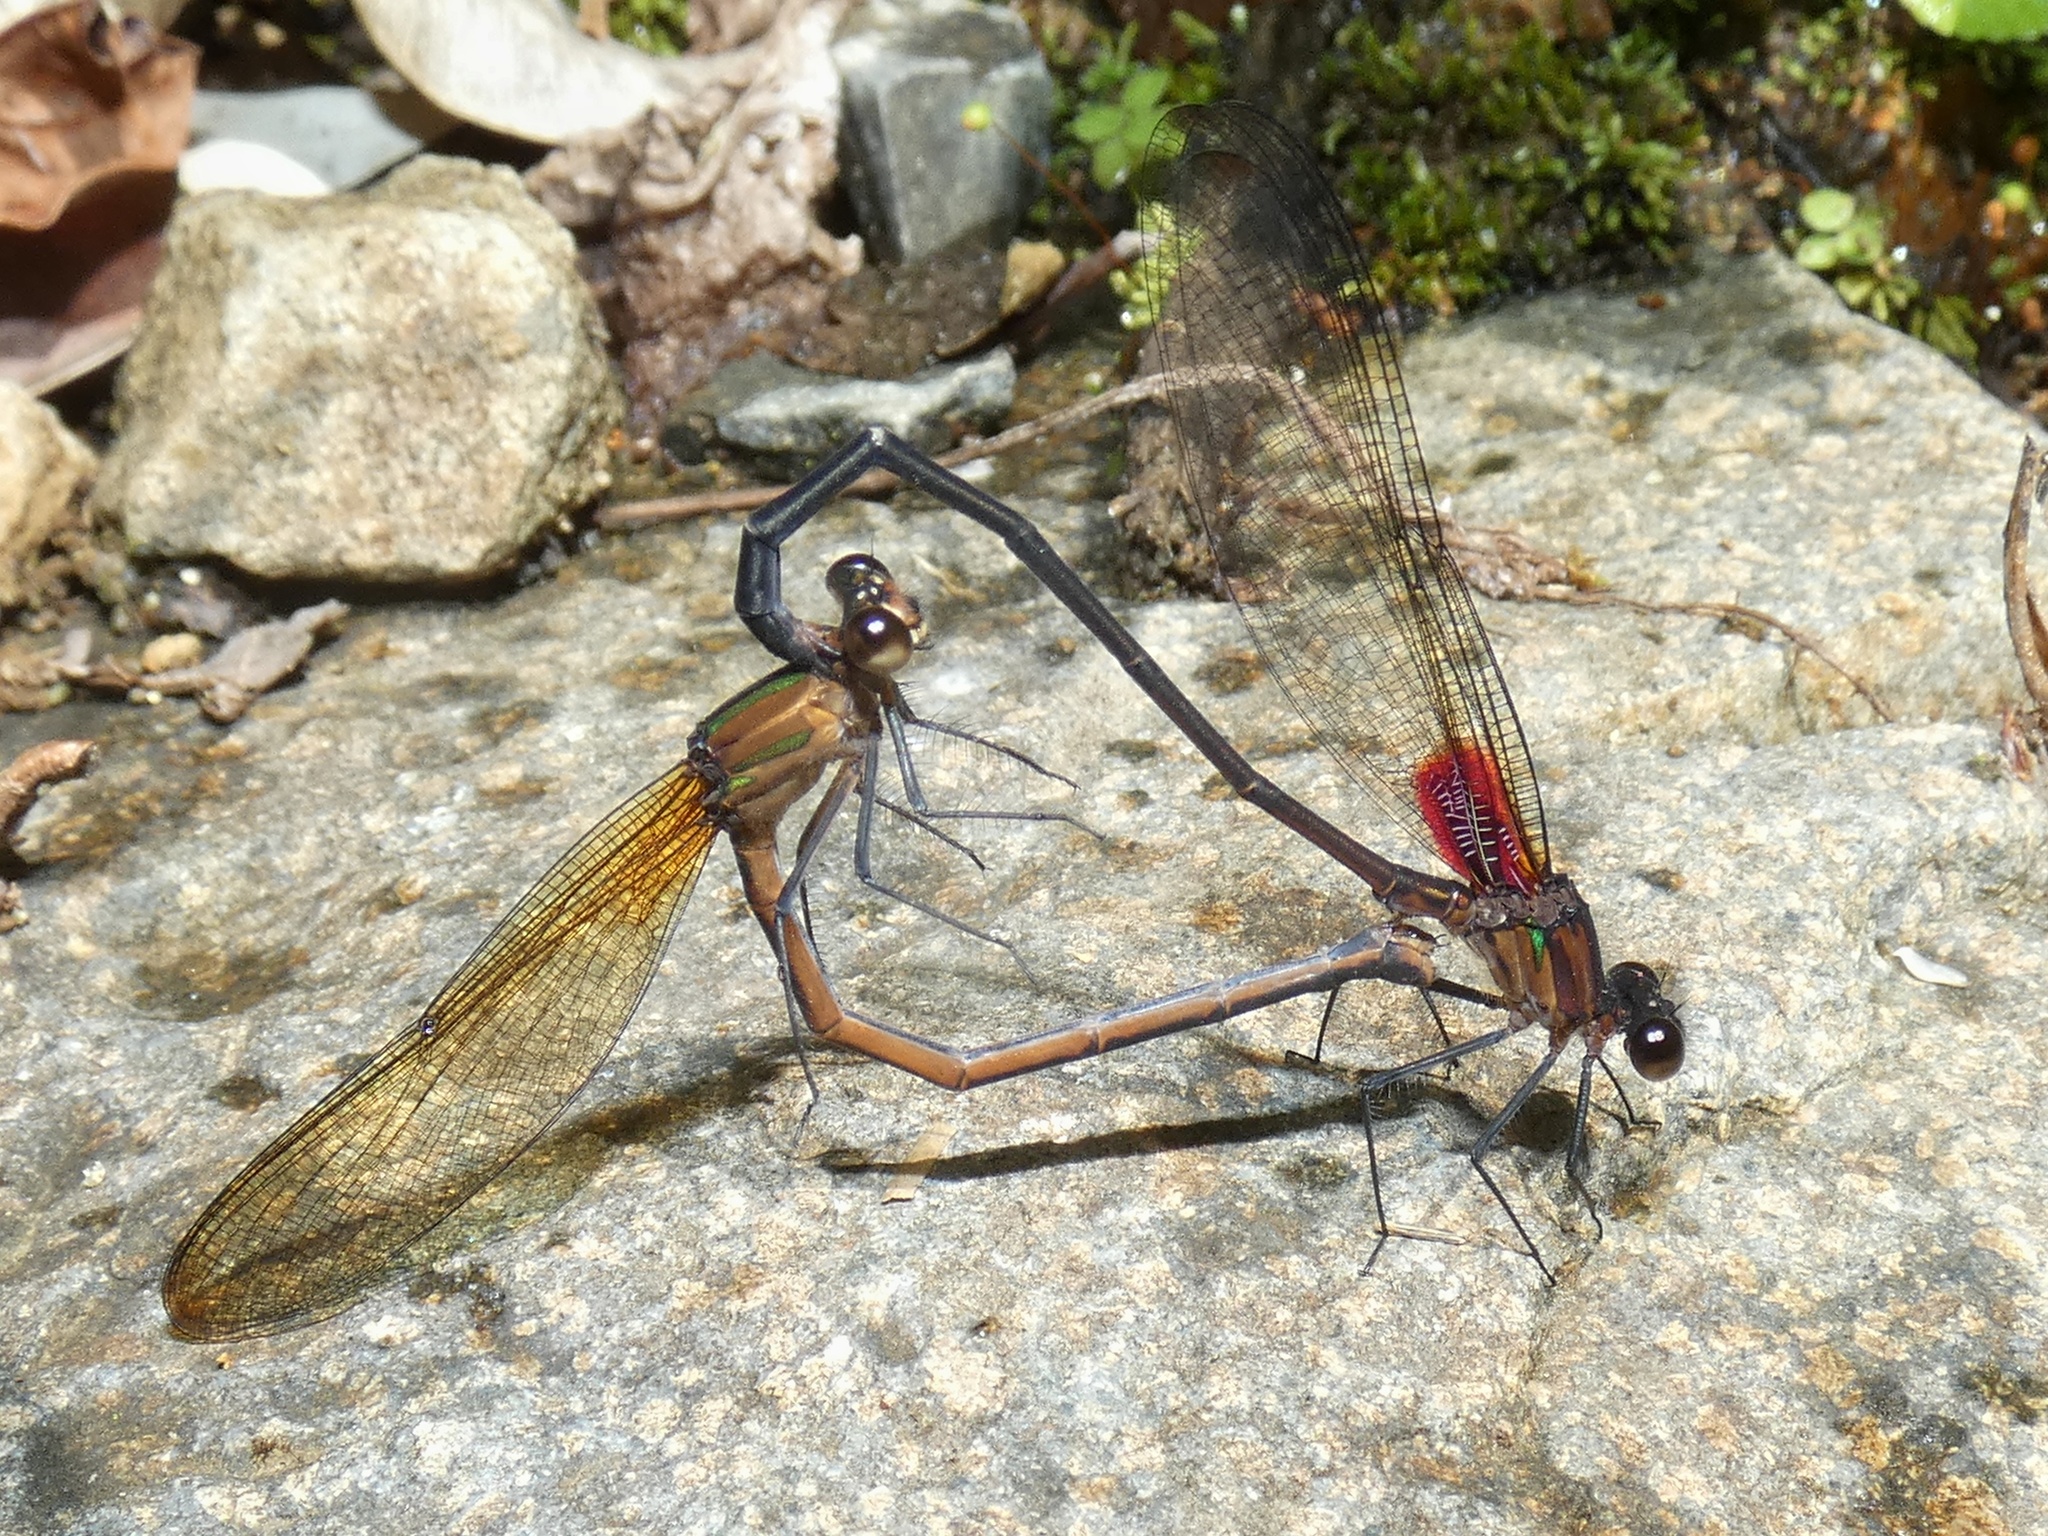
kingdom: Animalia
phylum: Arthropoda
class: Insecta
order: Odonata
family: Calopterygidae
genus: Hetaerina
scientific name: Hetaerina cruentata
